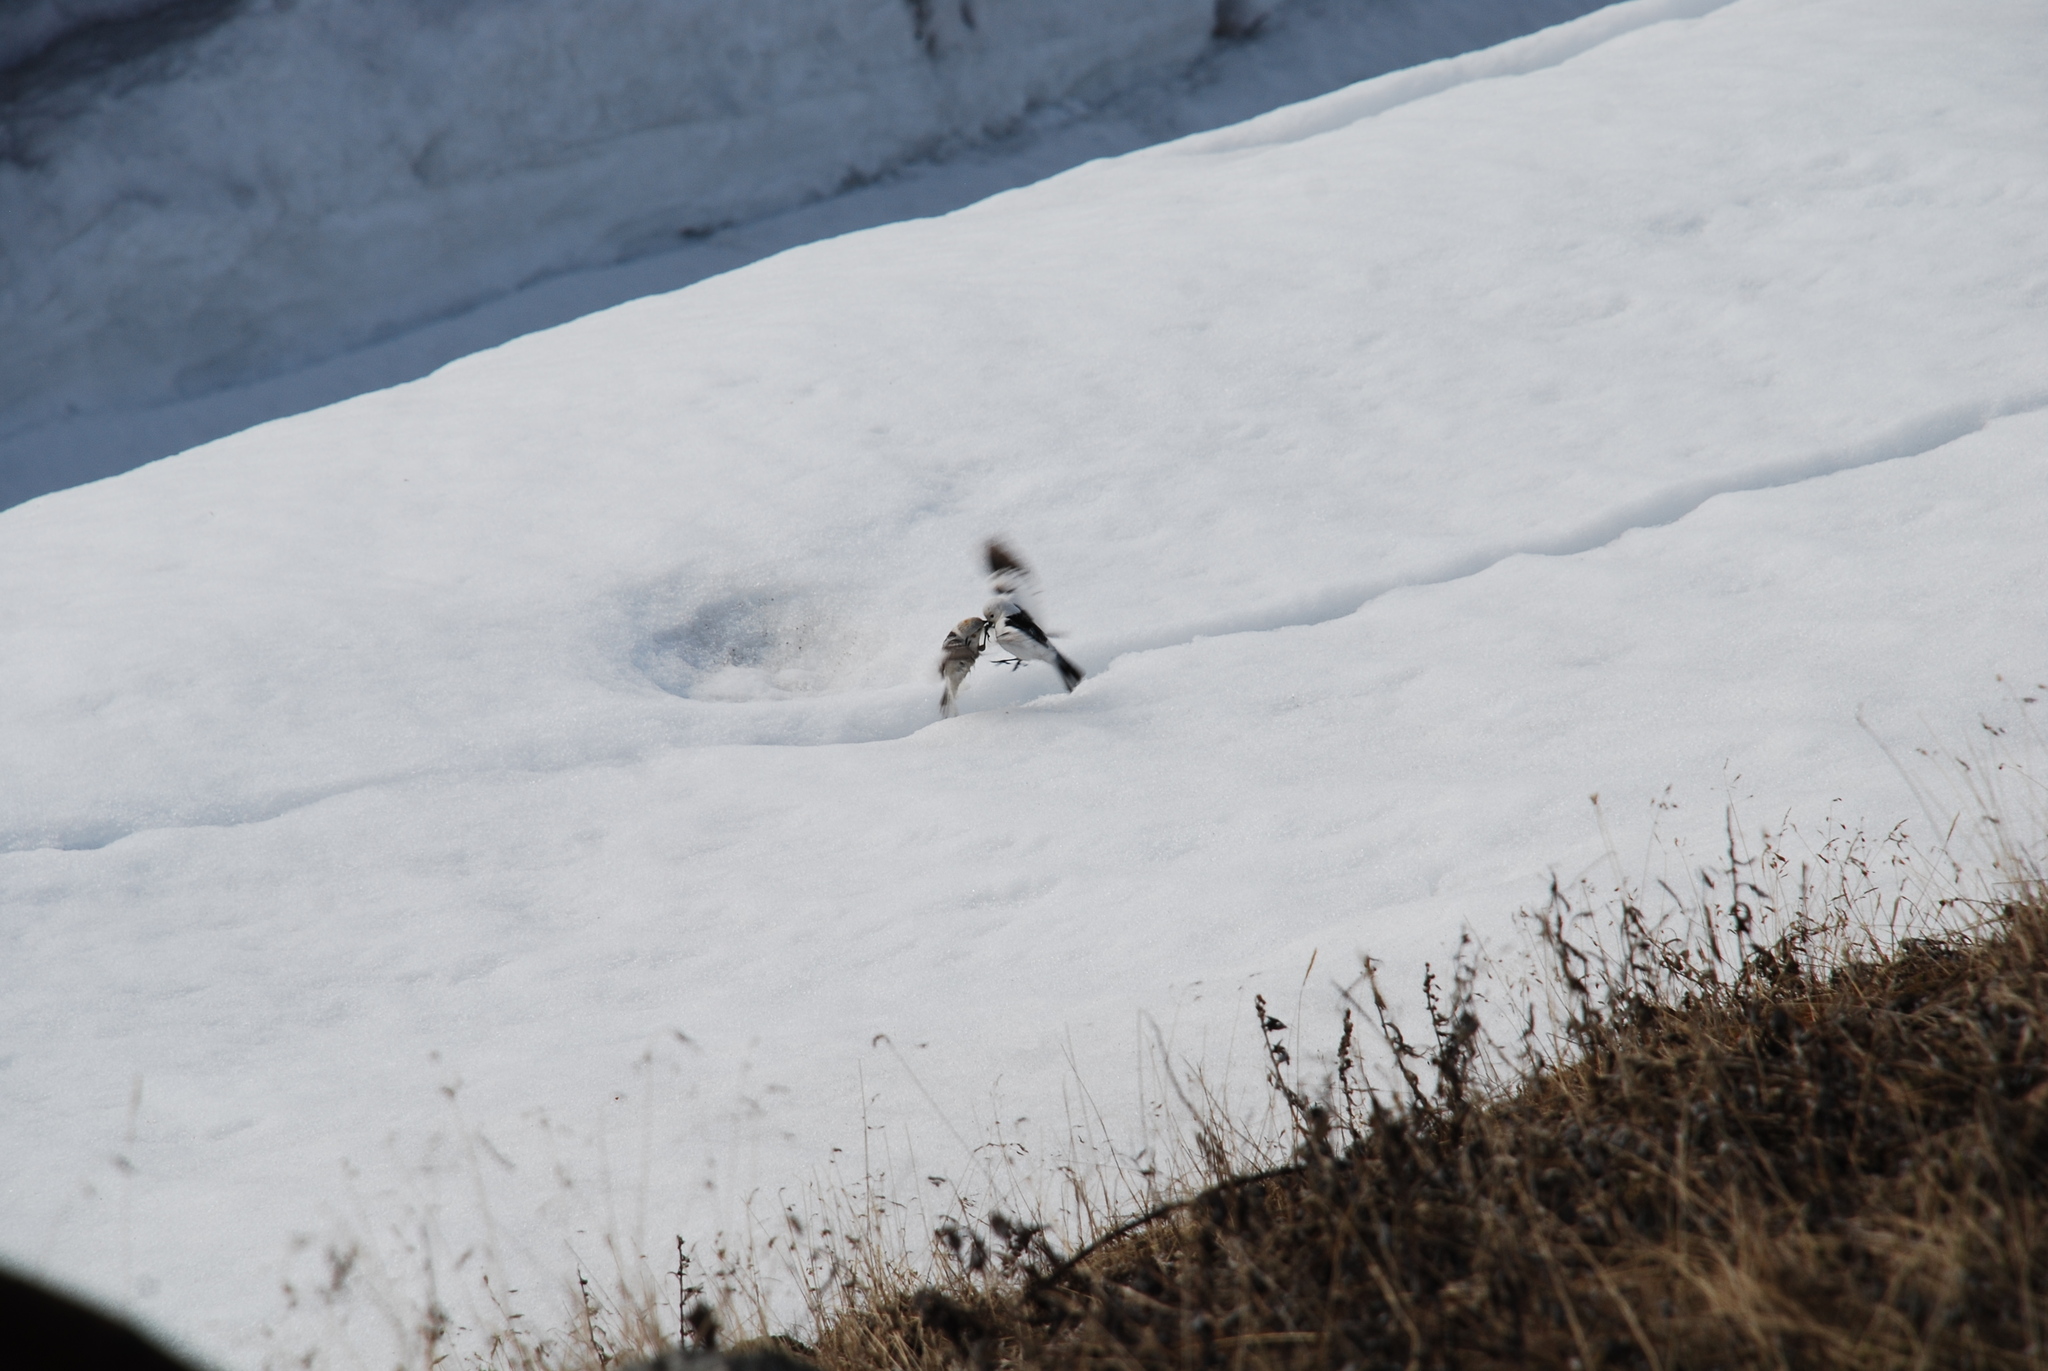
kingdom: Animalia
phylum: Chordata
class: Aves
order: Passeriformes
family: Calcariidae
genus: Plectrophenax
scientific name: Plectrophenax nivalis
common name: Snow bunting
